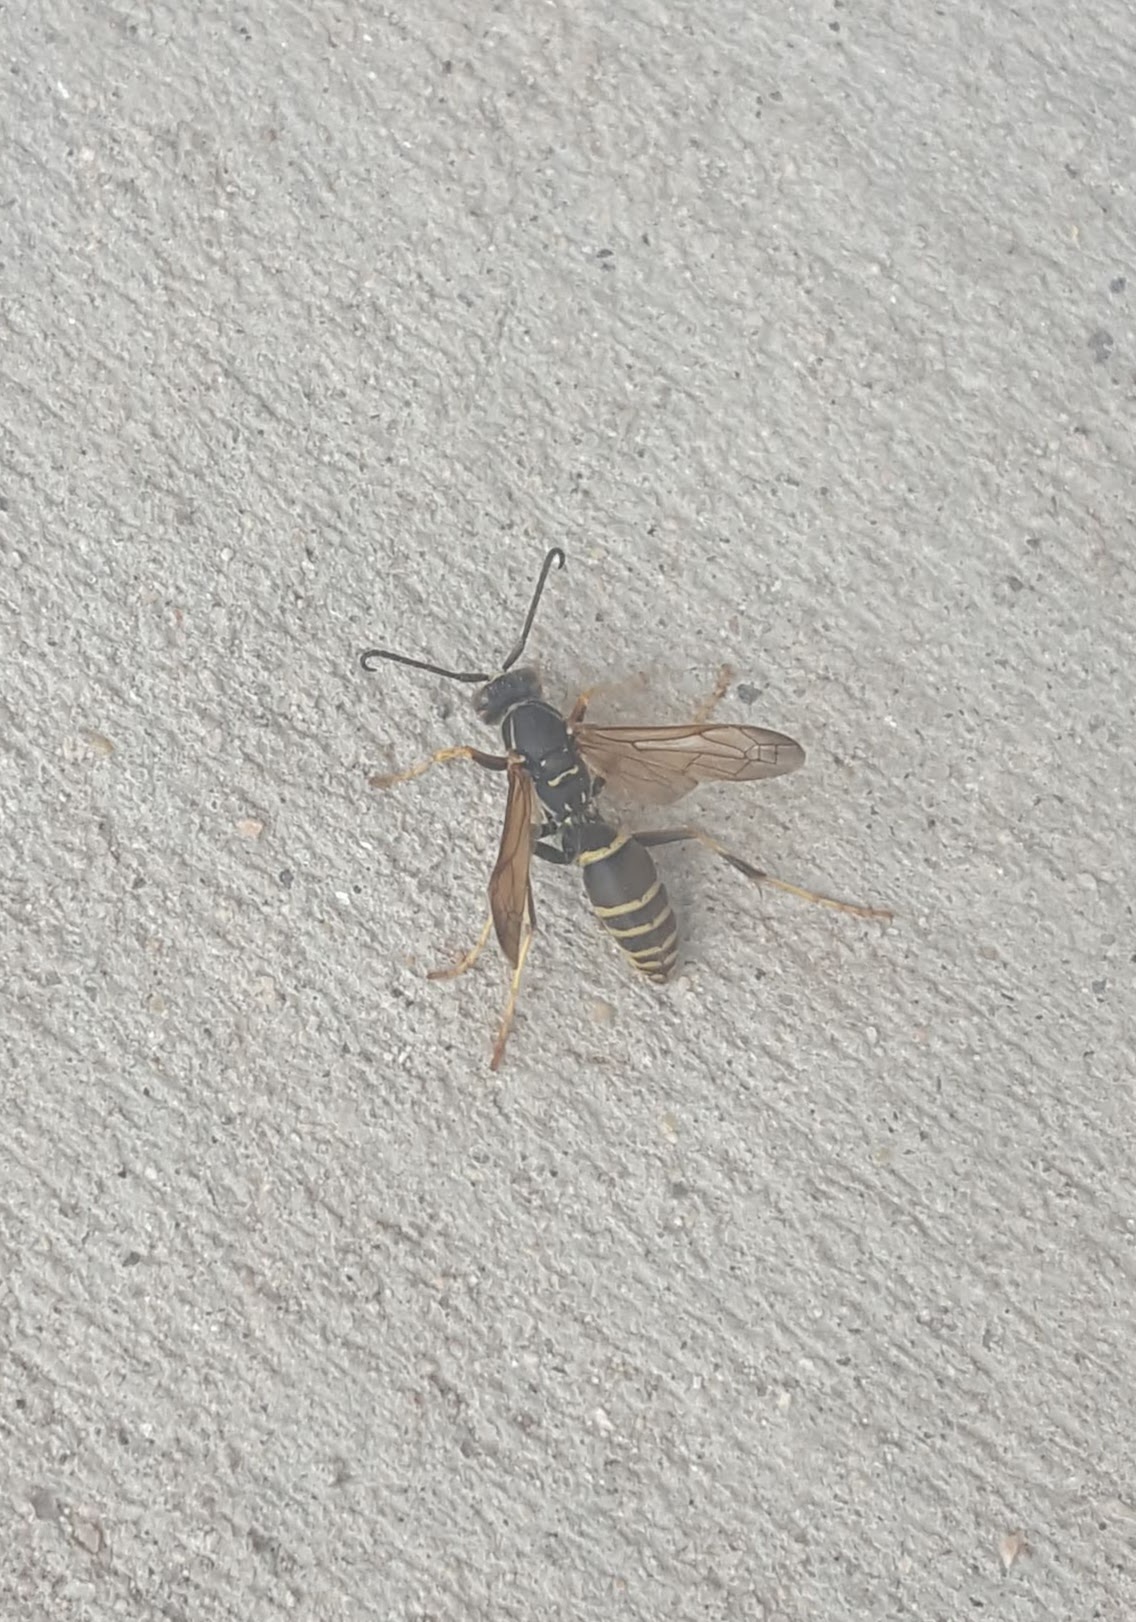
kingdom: Animalia
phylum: Arthropoda
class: Insecta
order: Hymenoptera
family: Eumenidae
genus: Polistes
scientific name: Polistes fuscatus
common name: Dark paper wasp
